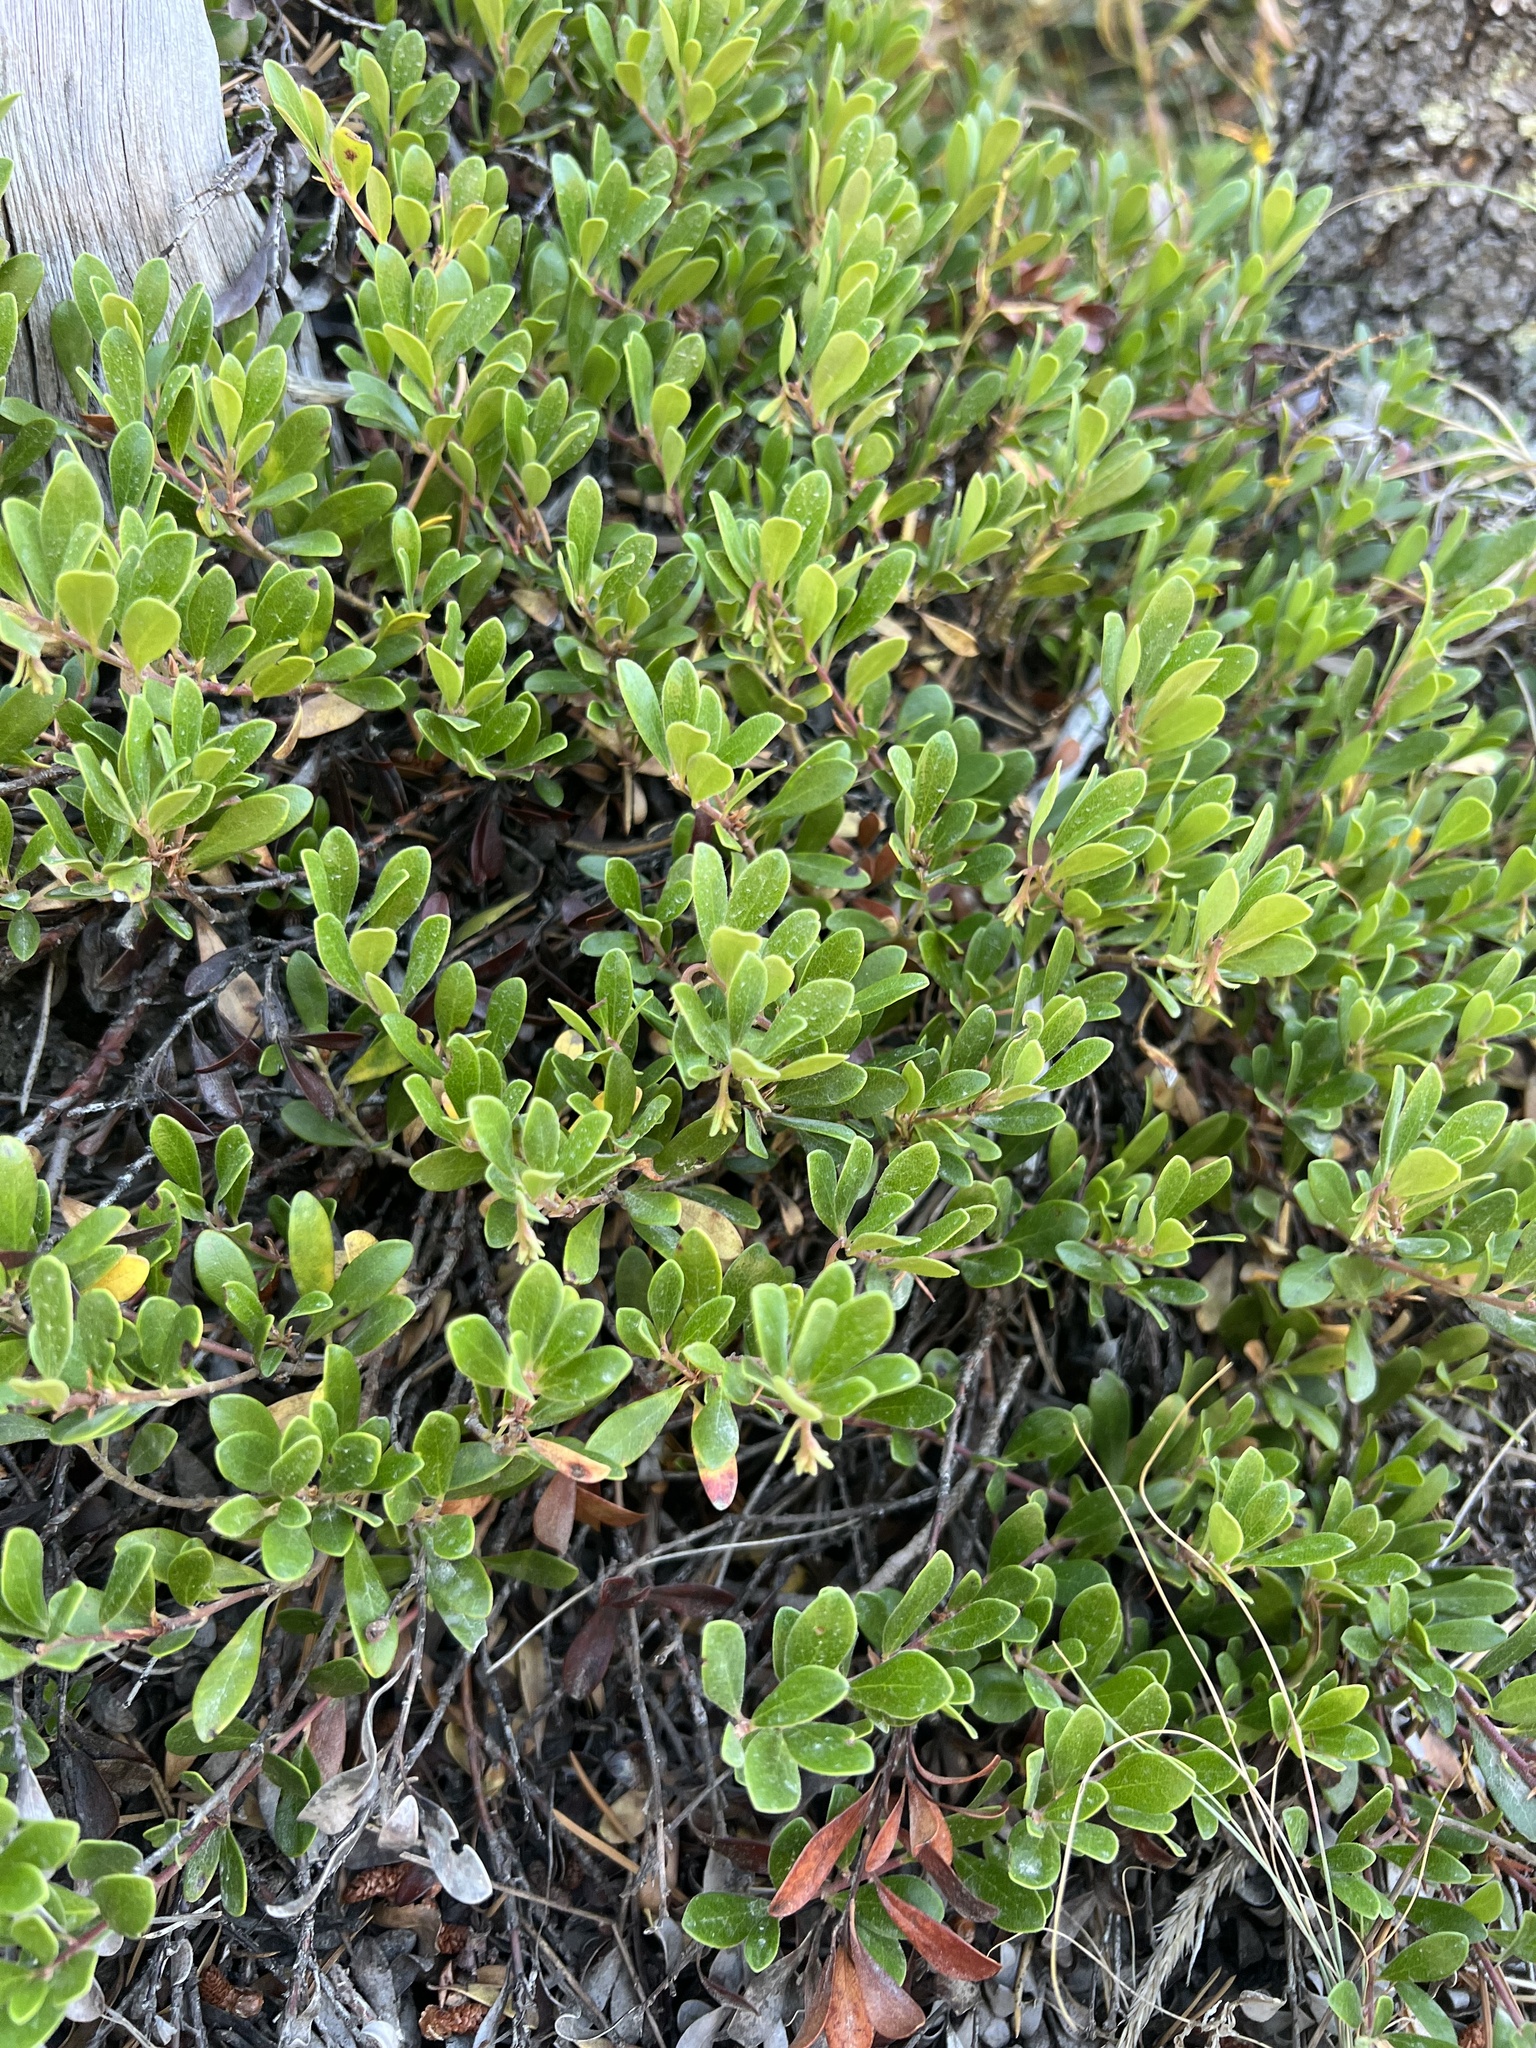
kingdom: Plantae
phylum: Tracheophyta
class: Magnoliopsida
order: Ericales
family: Ericaceae
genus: Arctostaphylos
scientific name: Arctostaphylos uva-ursi
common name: Bearberry
